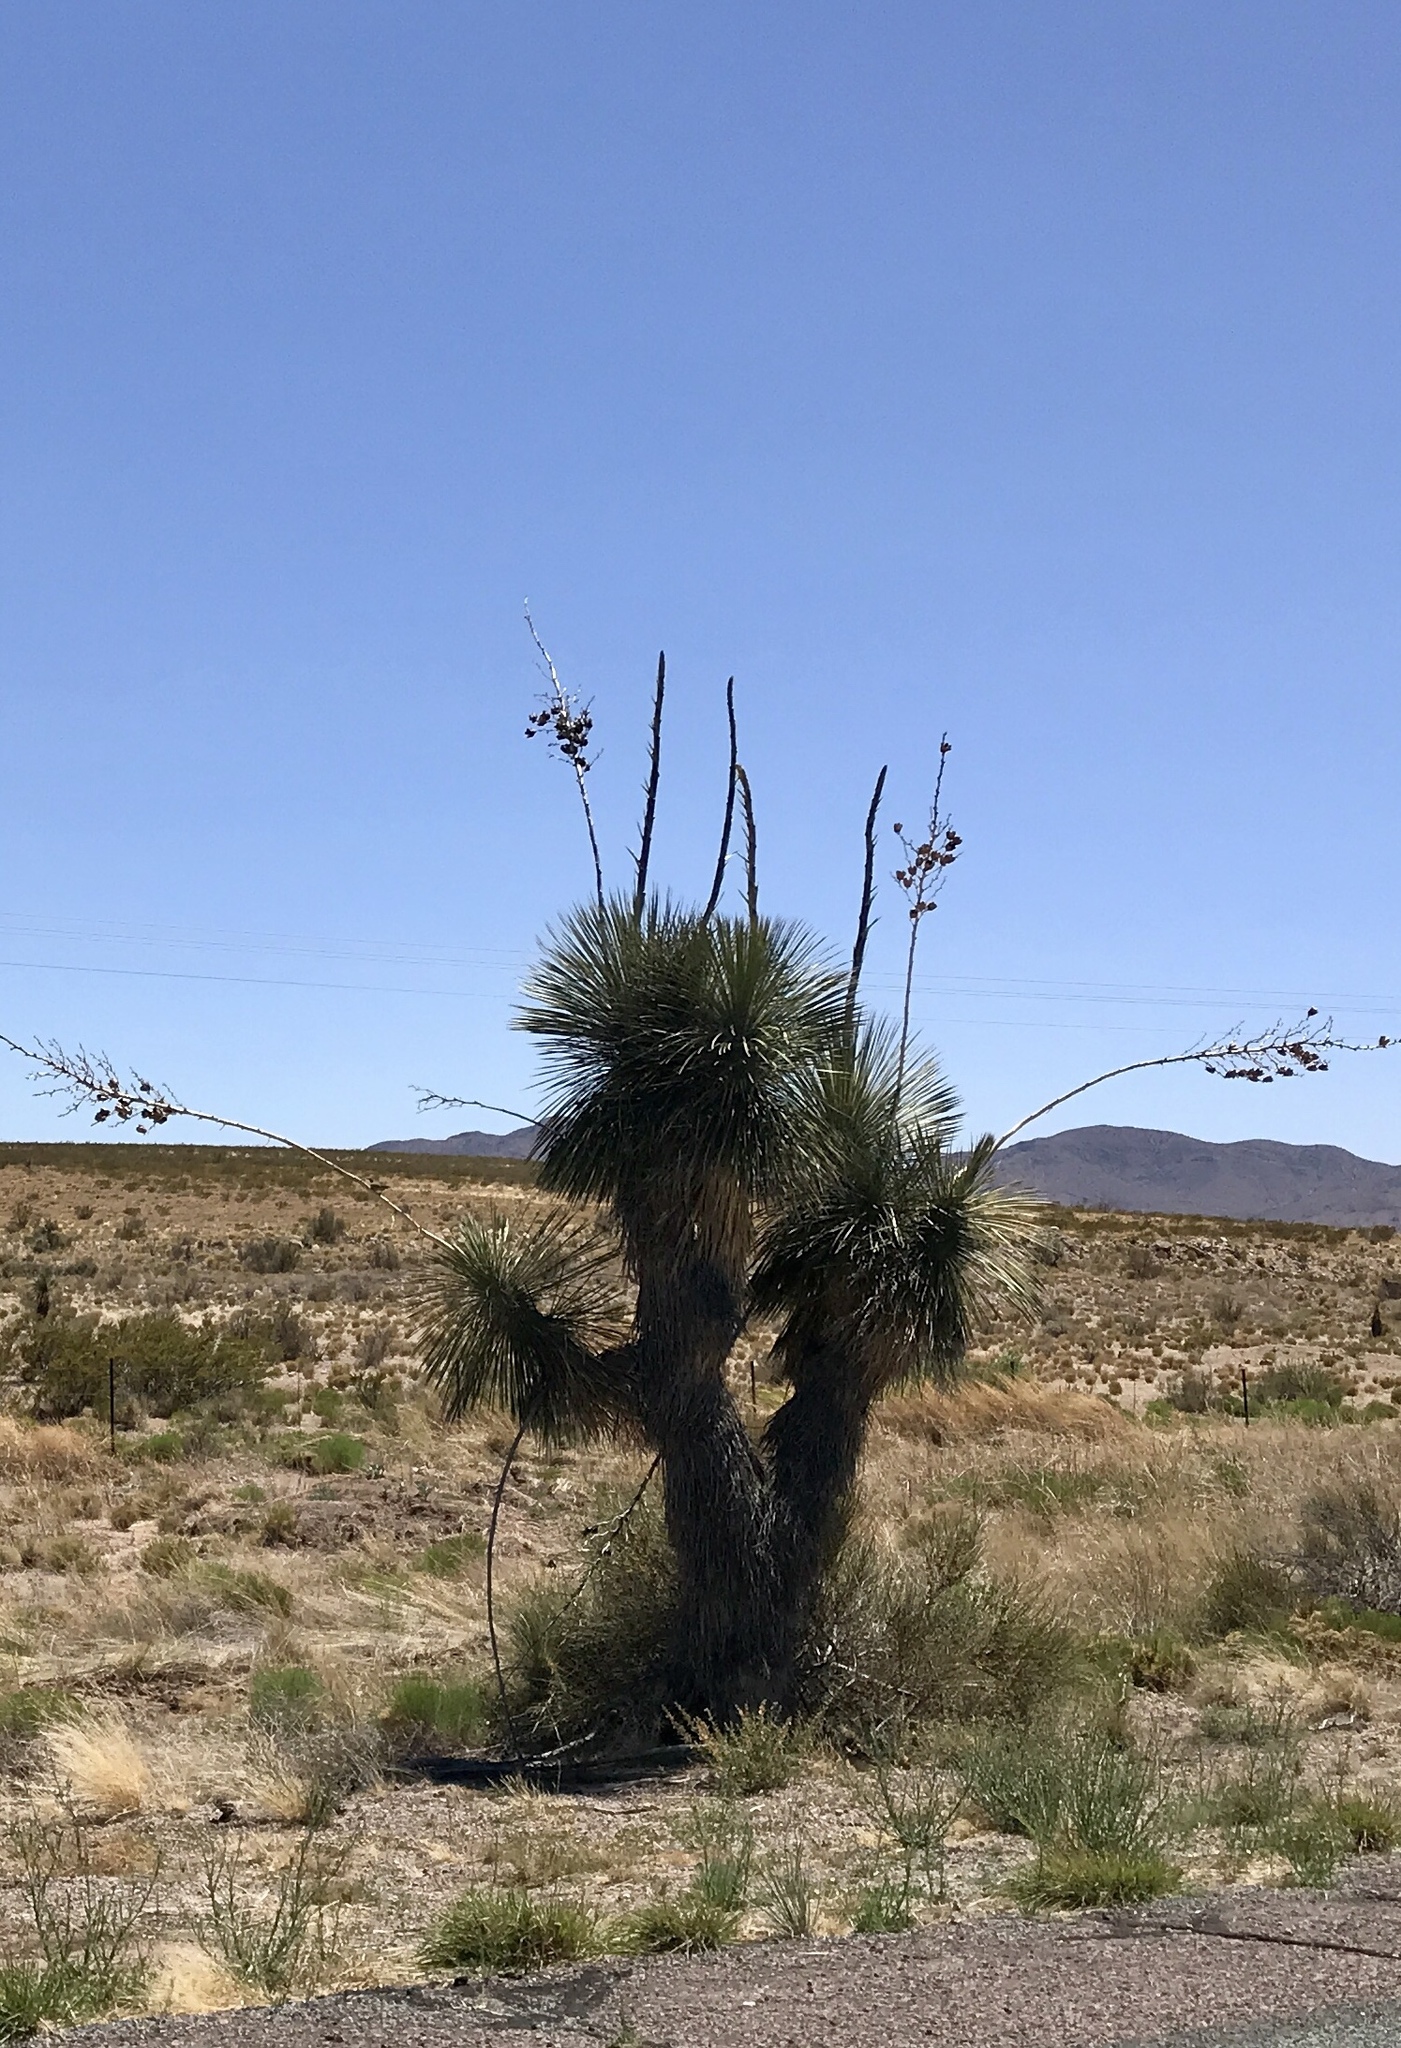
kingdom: Plantae
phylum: Tracheophyta
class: Liliopsida
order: Asparagales
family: Asparagaceae
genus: Yucca
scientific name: Yucca elata
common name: Palmella
